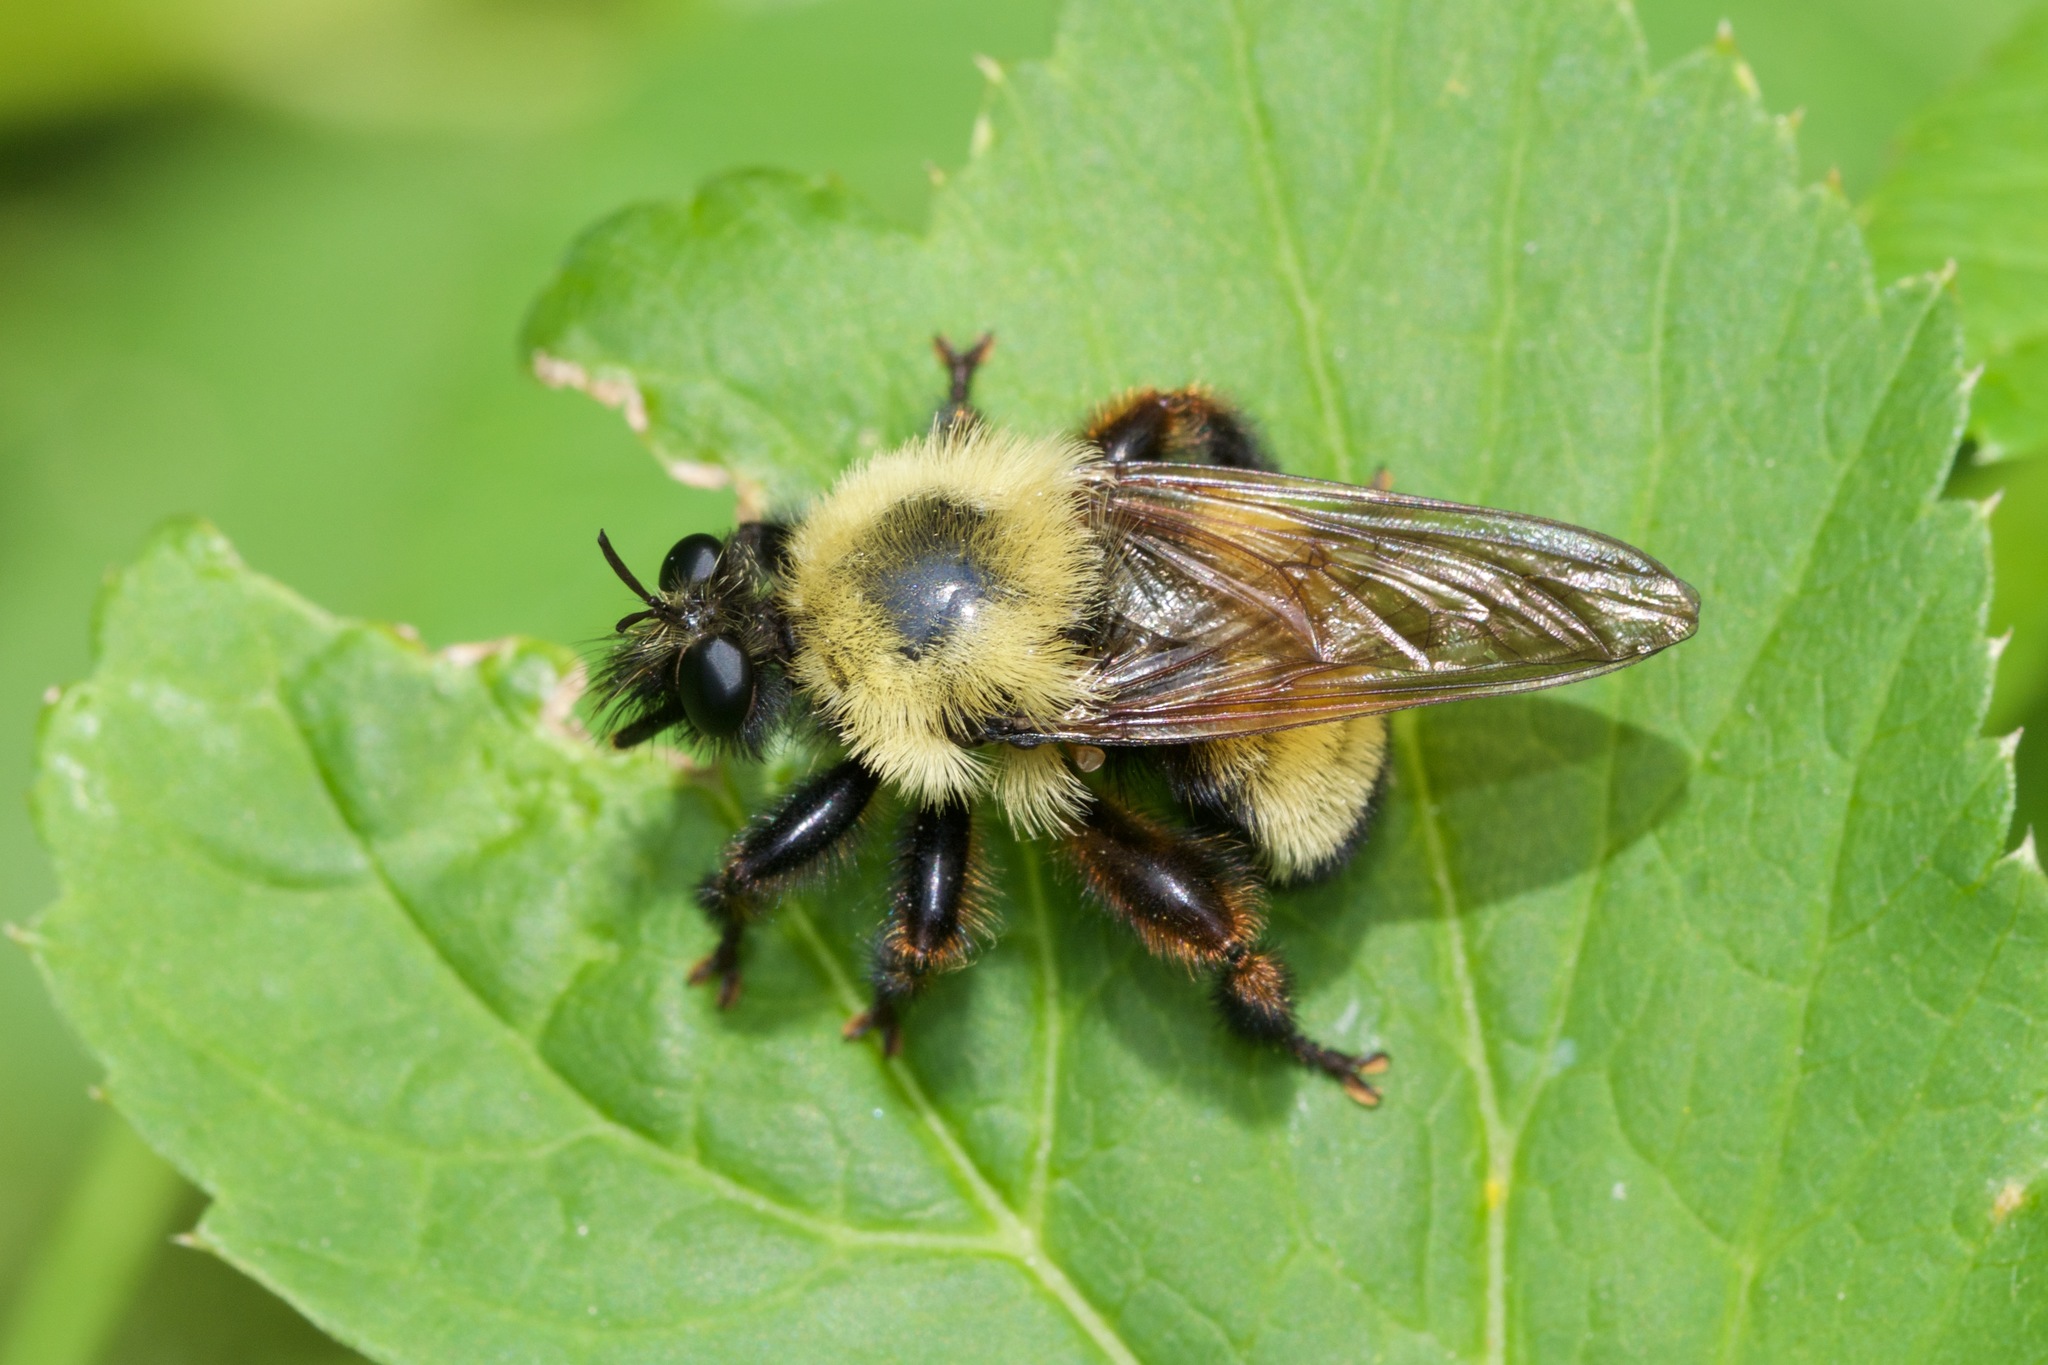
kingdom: Animalia
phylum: Arthropoda
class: Insecta
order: Diptera
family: Asilidae
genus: Laphria
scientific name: Laphria thoracica
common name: Bumble bee mimic robber fly
